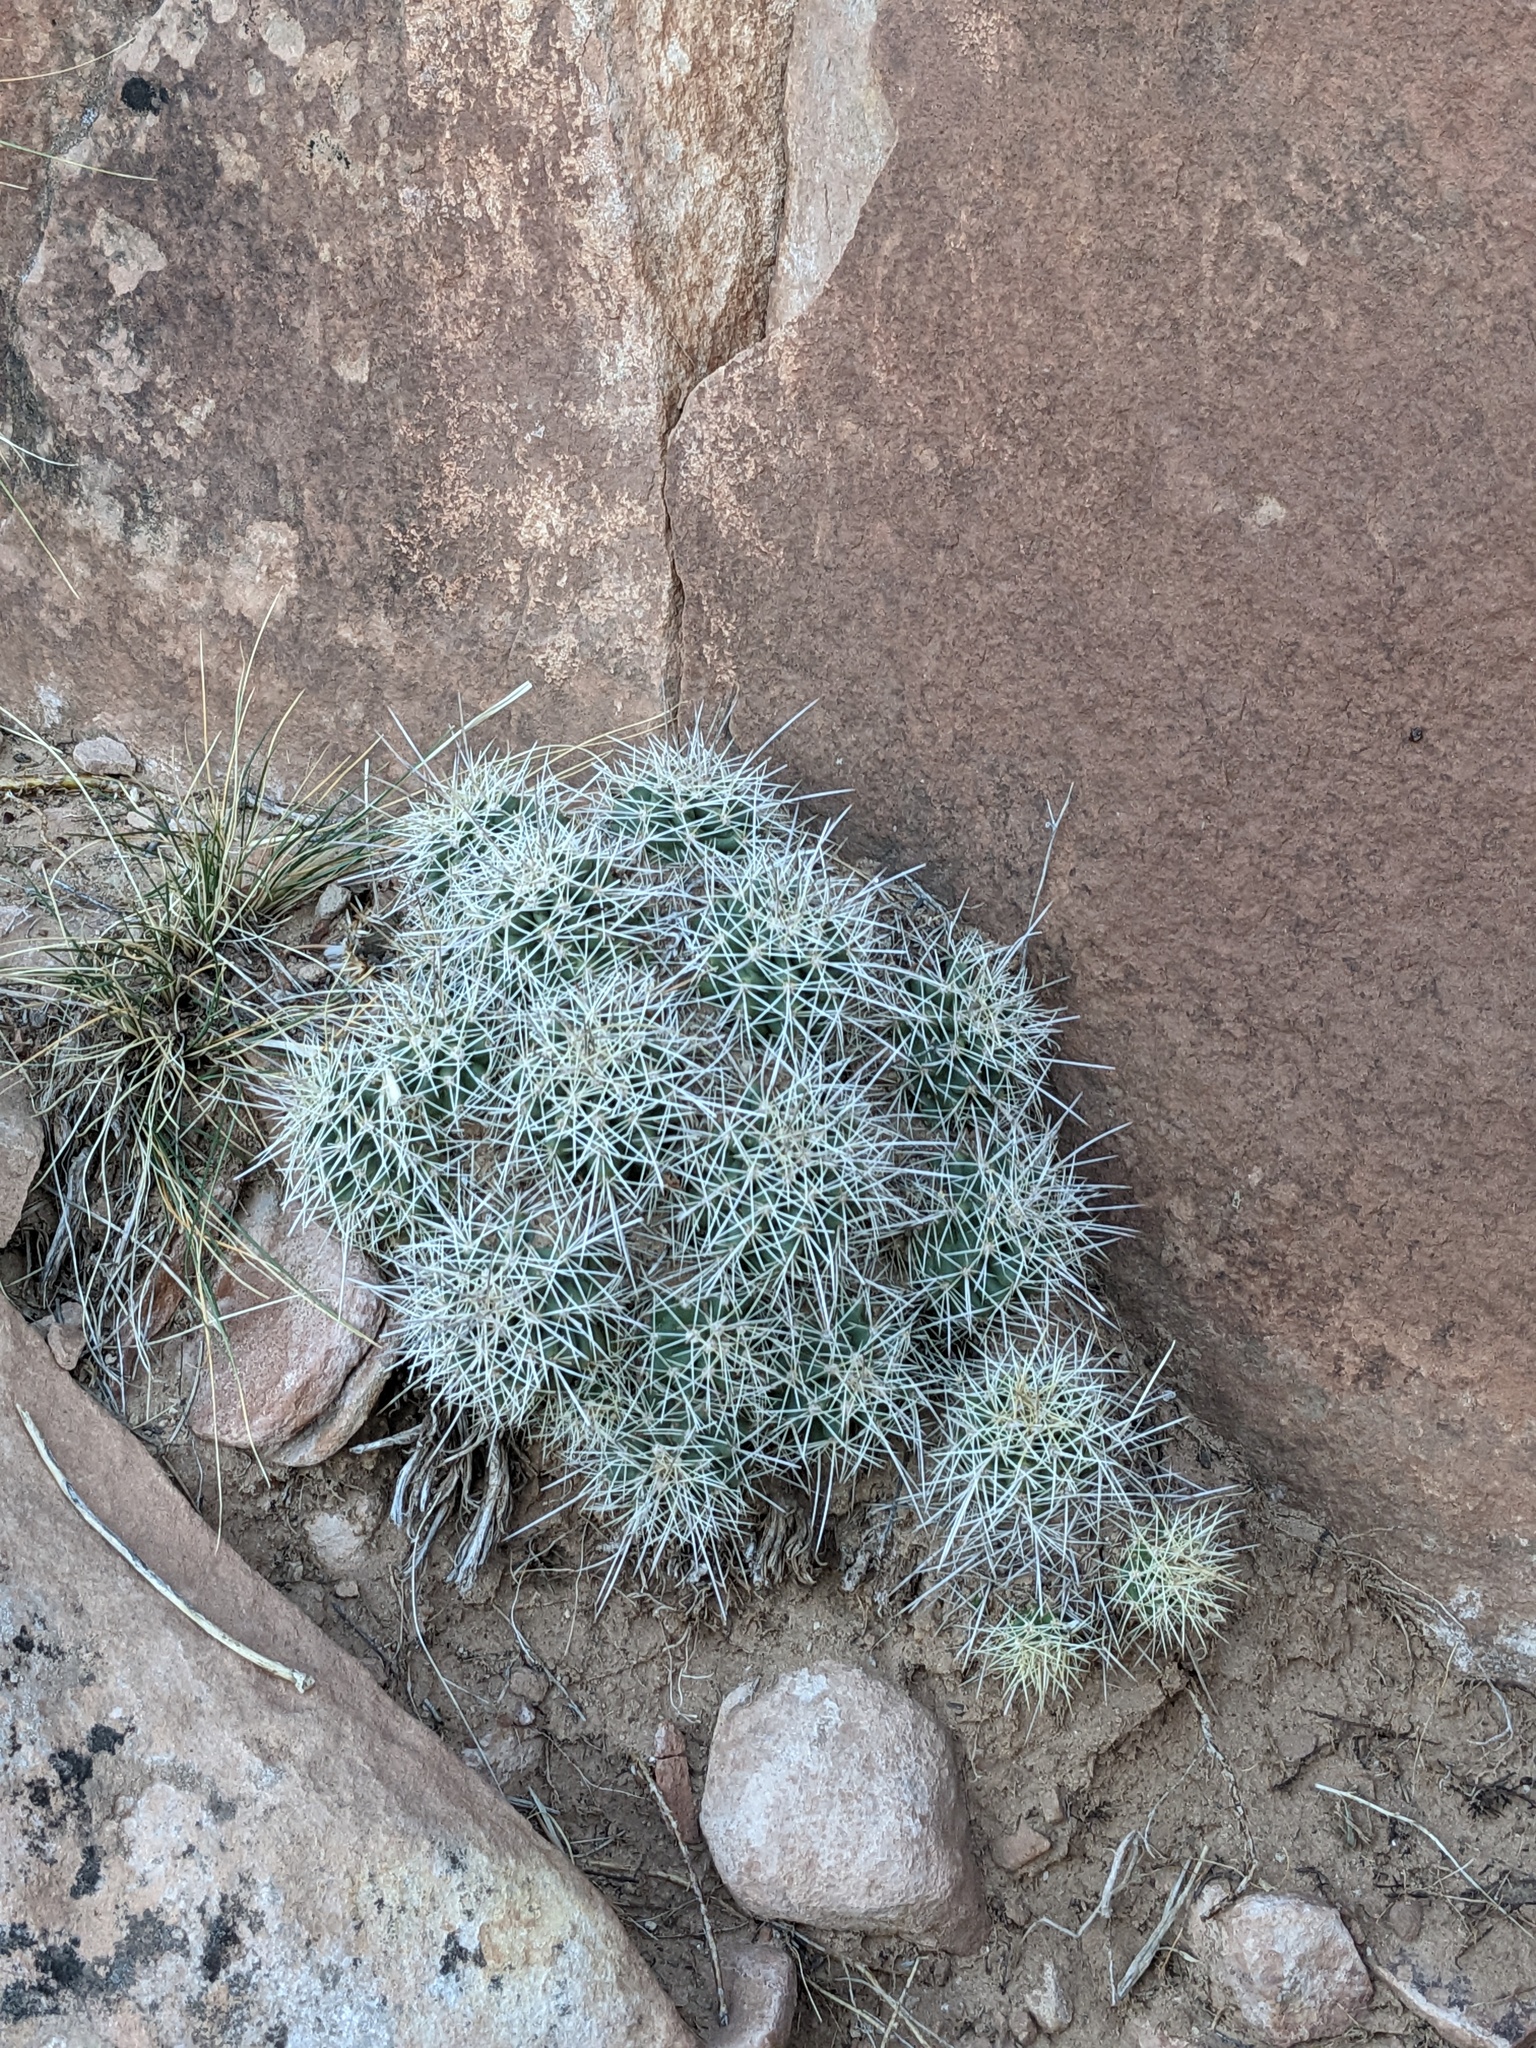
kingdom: Plantae
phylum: Tracheophyta
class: Magnoliopsida
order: Caryophyllales
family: Cactaceae
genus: Echinocereus
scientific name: Echinocereus triglochidiatus
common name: Claretcup hedgehog
